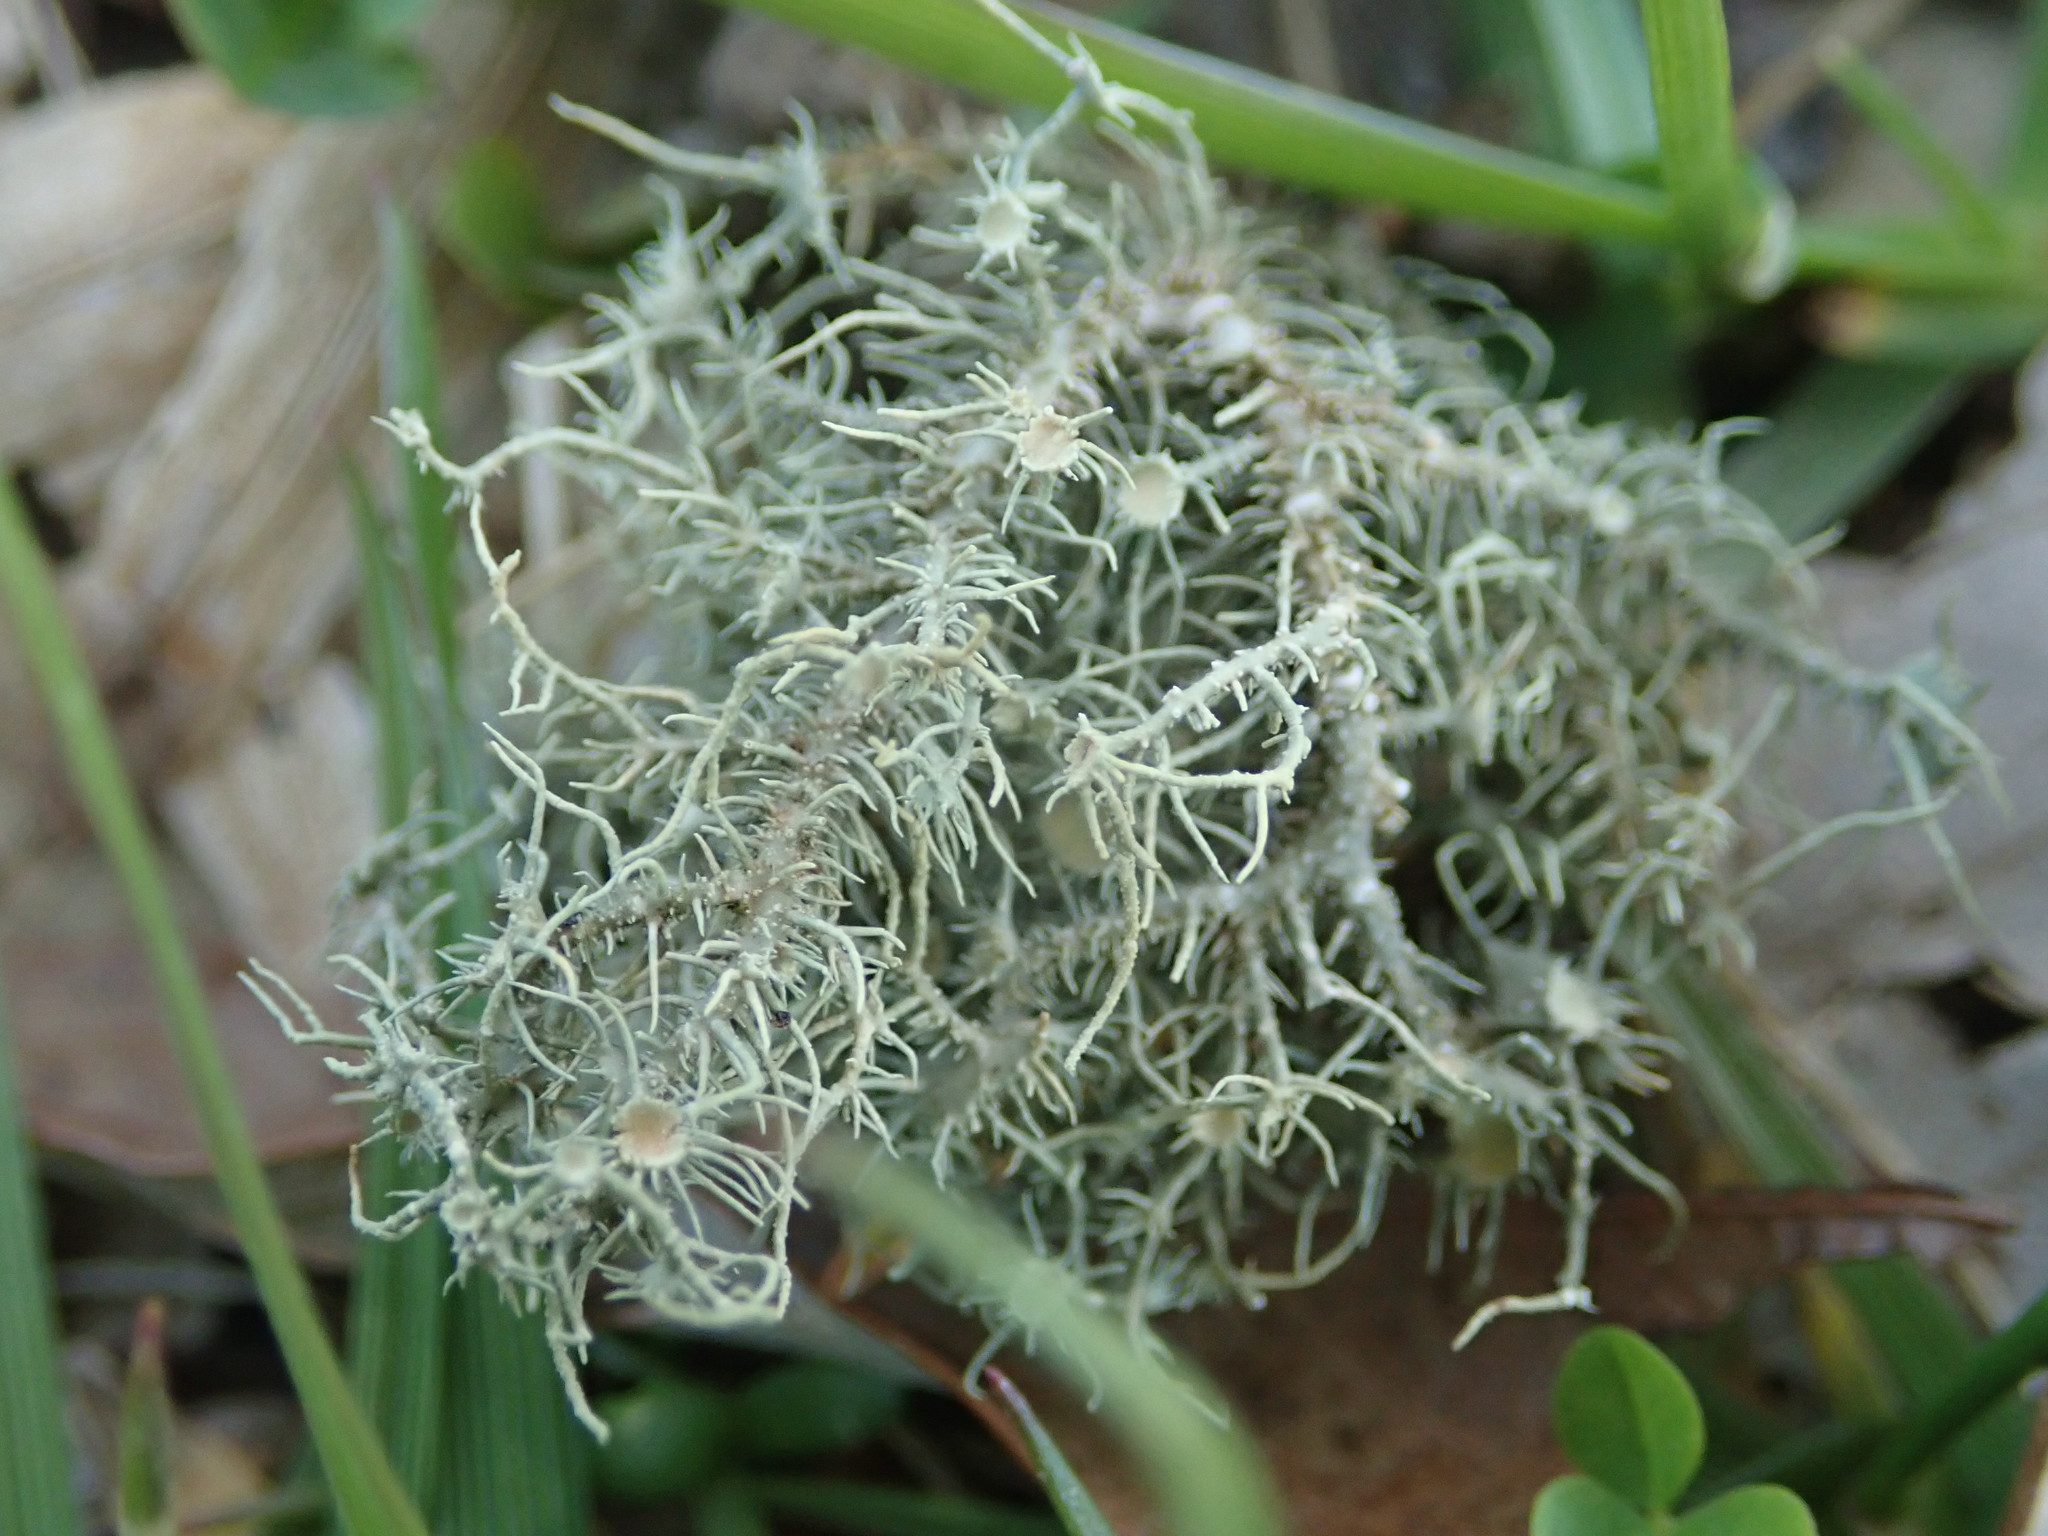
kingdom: Fungi
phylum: Ascomycota
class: Lecanoromycetes
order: Lecanorales
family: Parmeliaceae
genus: Usnea
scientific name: Usnea strigosa
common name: Bushy beard lichen
